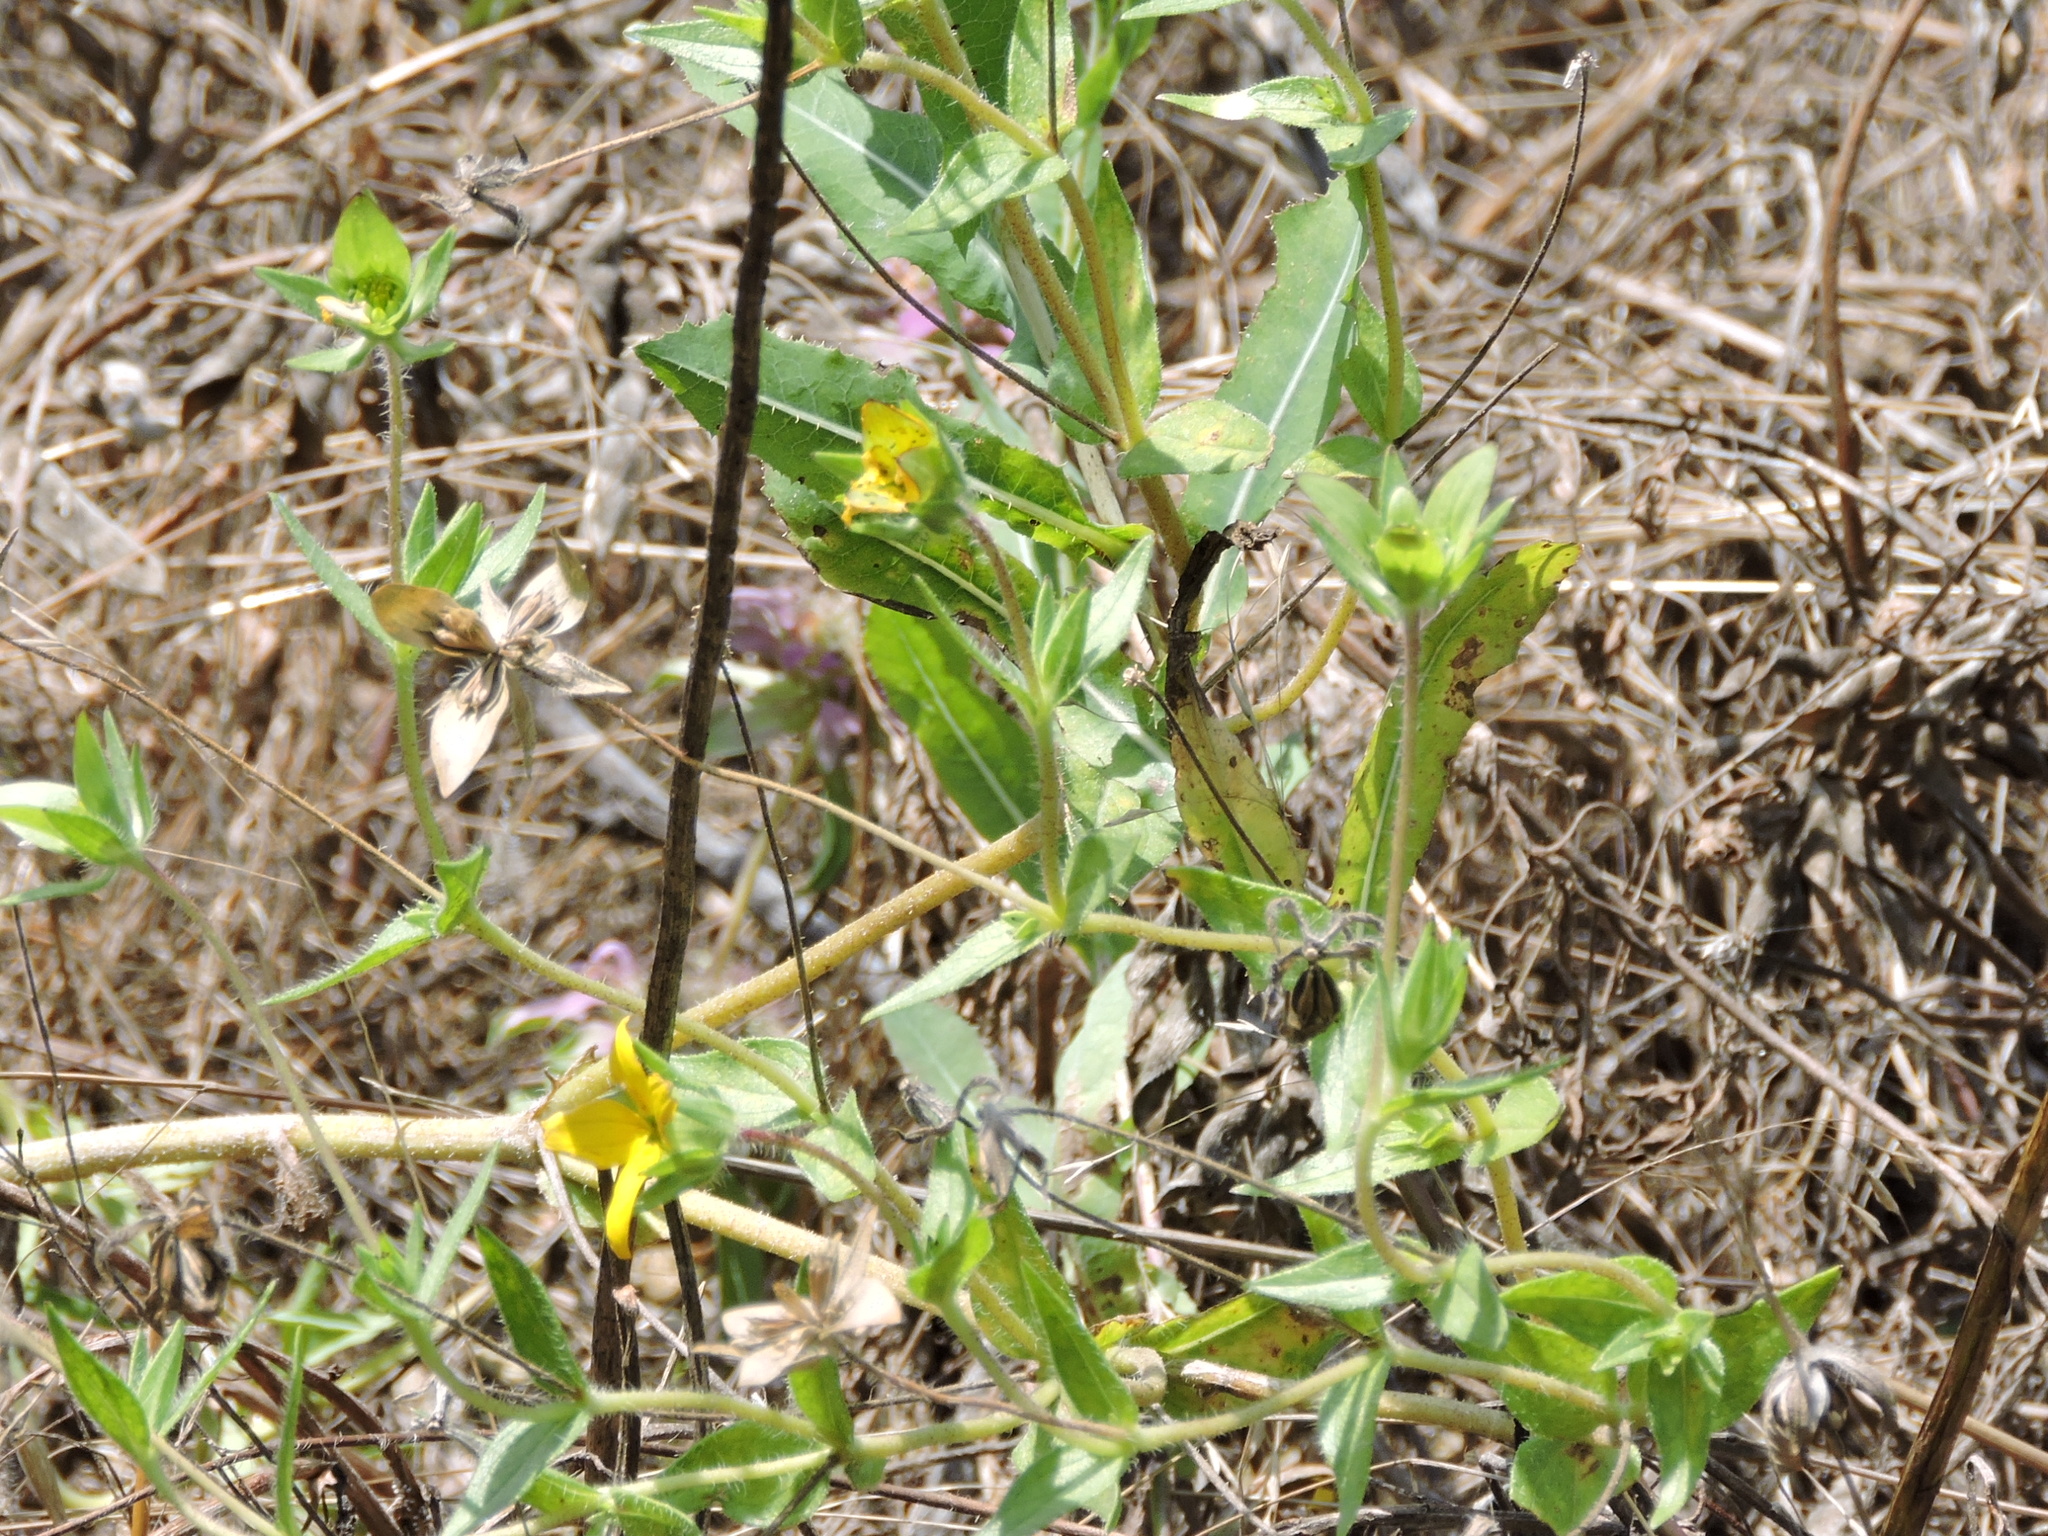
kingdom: Plantae
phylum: Tracheophyta
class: Magnoliopsida
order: Asterales
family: Asteraceae
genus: Lindheimera
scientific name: Lindheimera texana
